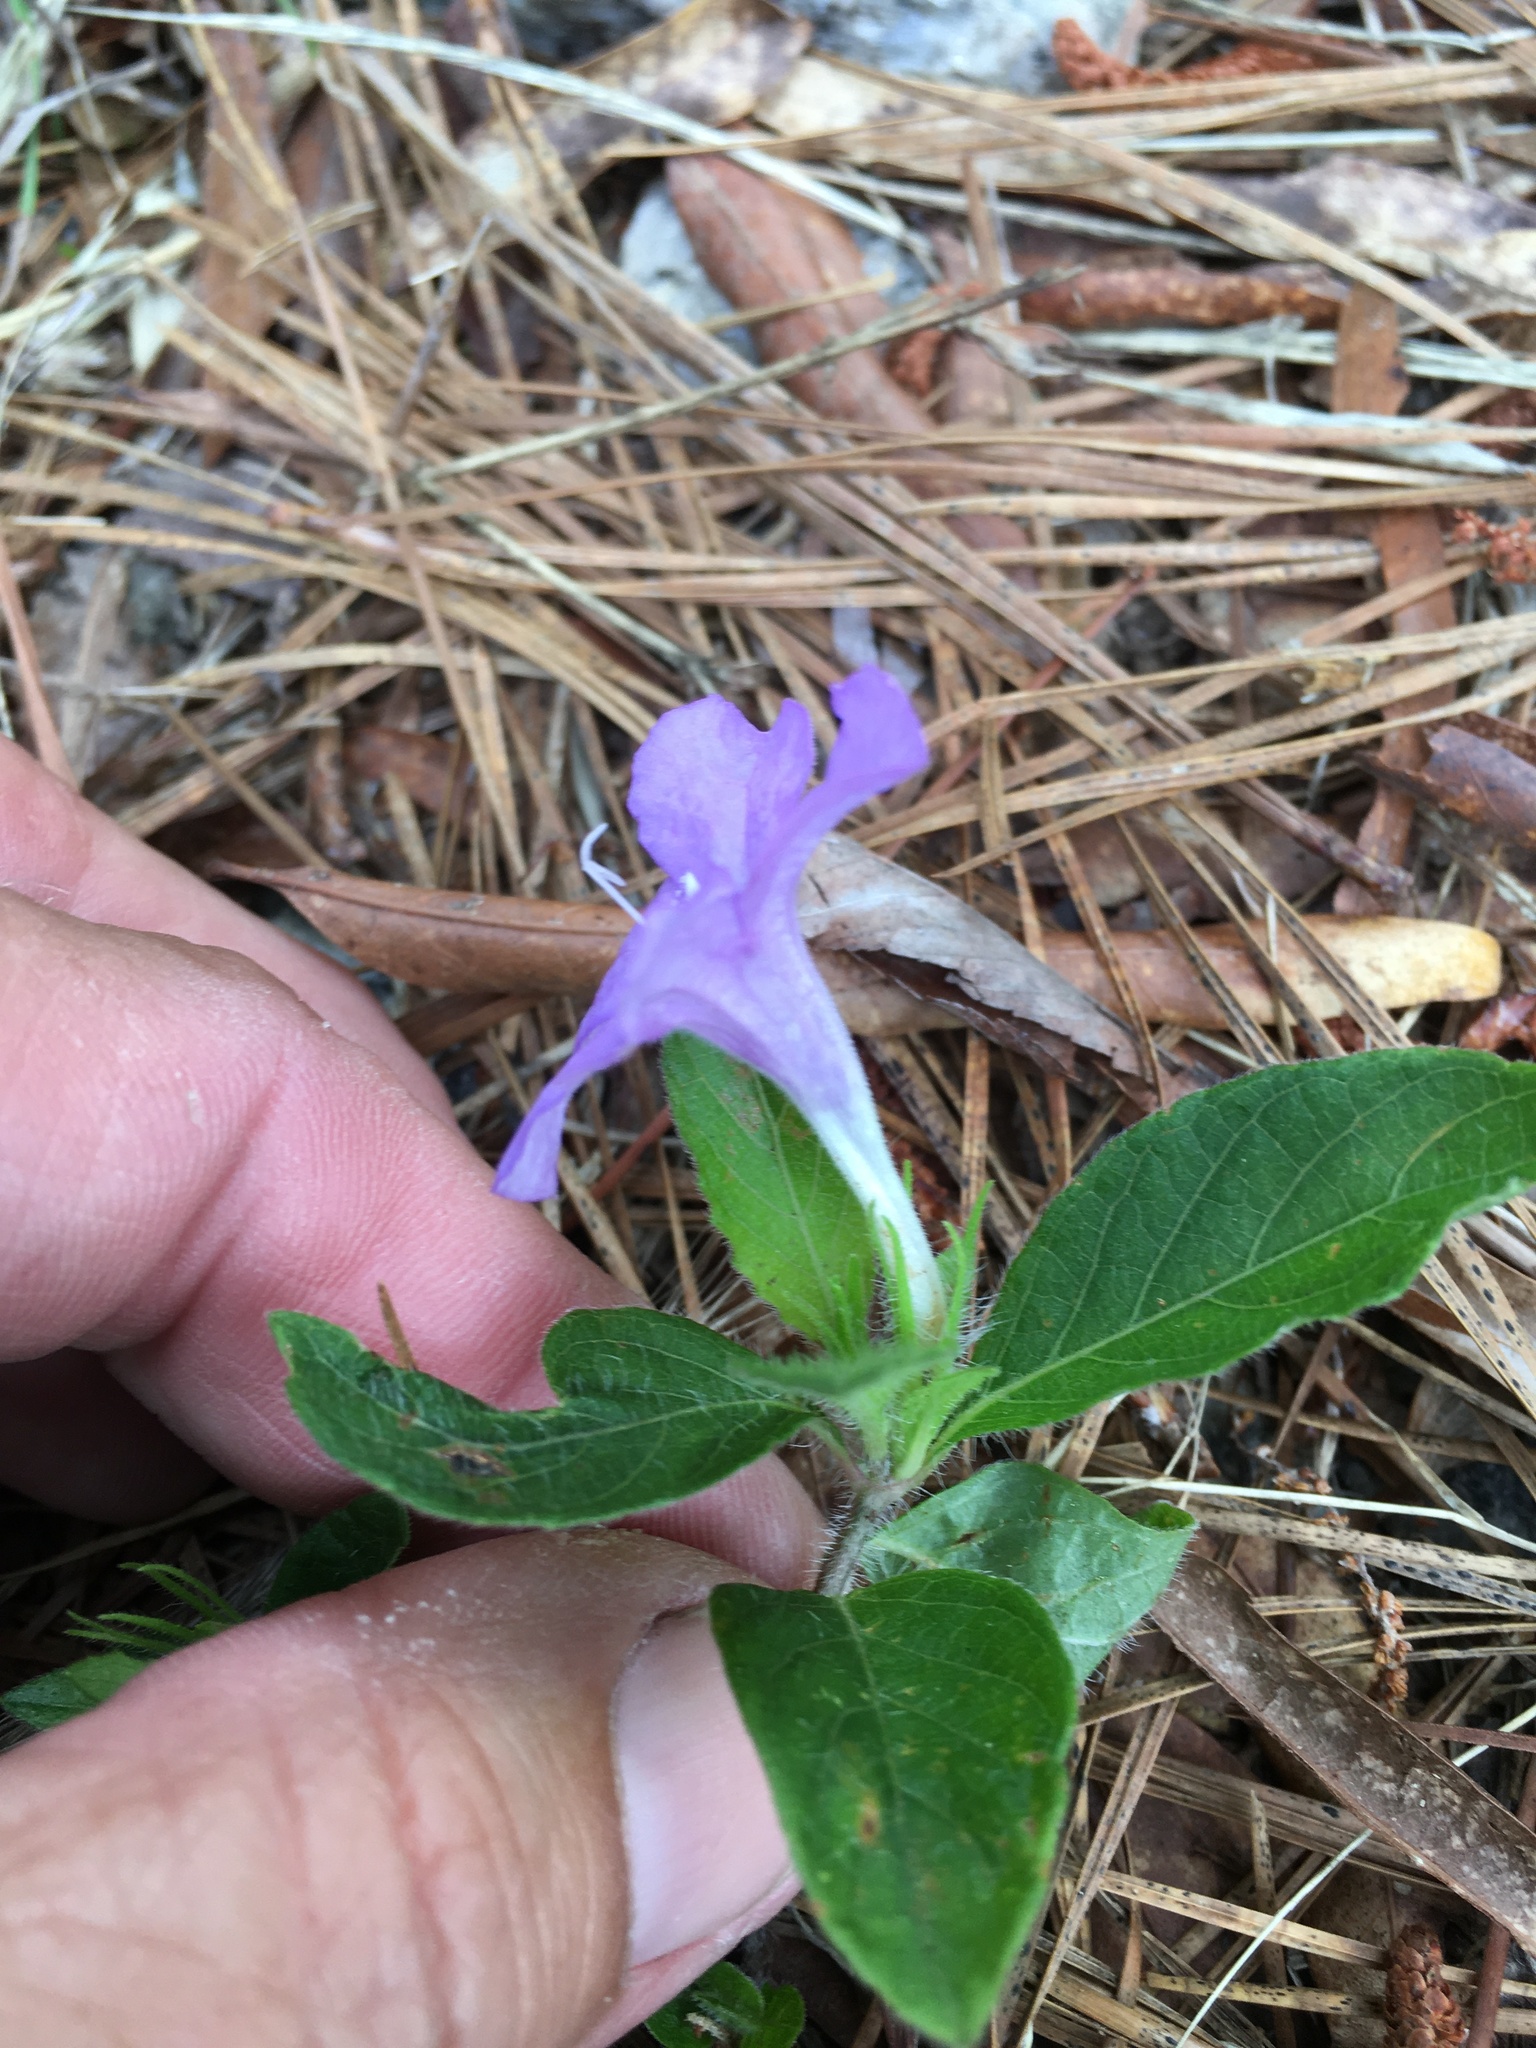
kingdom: Plantae
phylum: Tracheophyta
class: Magnoliopsida
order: Lamiales
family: Acanthaceae
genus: Ruellia
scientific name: Ruellia caroliniensis
